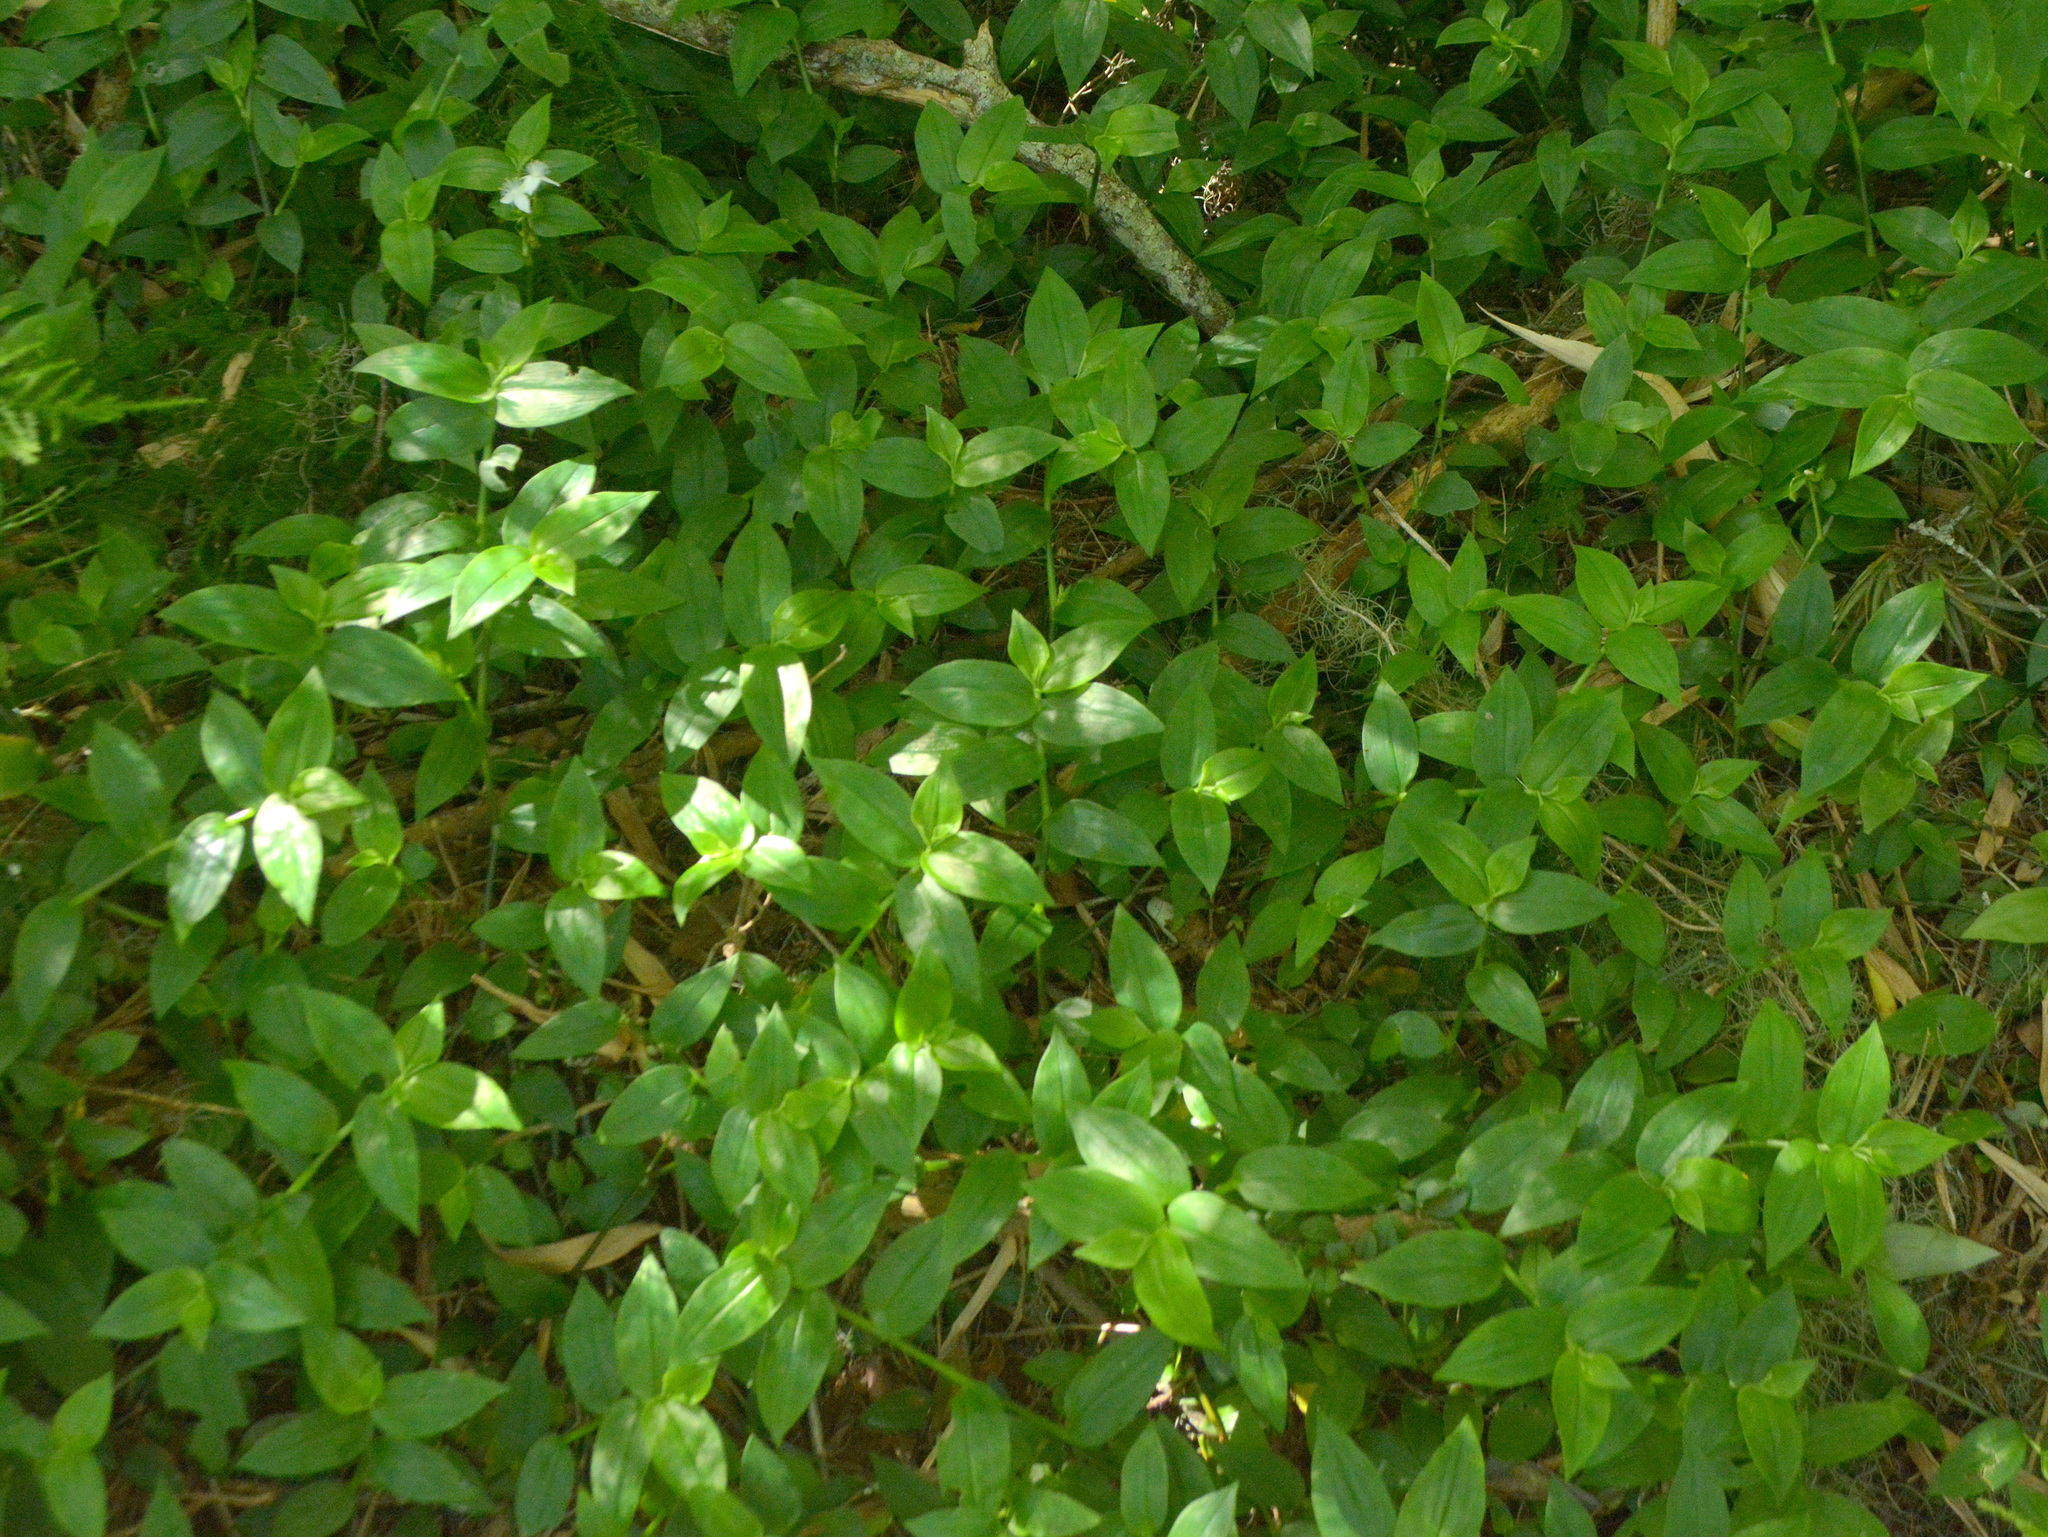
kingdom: Plantae
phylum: Tracheophyta
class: Liliopsida
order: Commelinales
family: Commelinaceae
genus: Tradescantia
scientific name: Tradescantia fluminensis
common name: Wandering-jew
